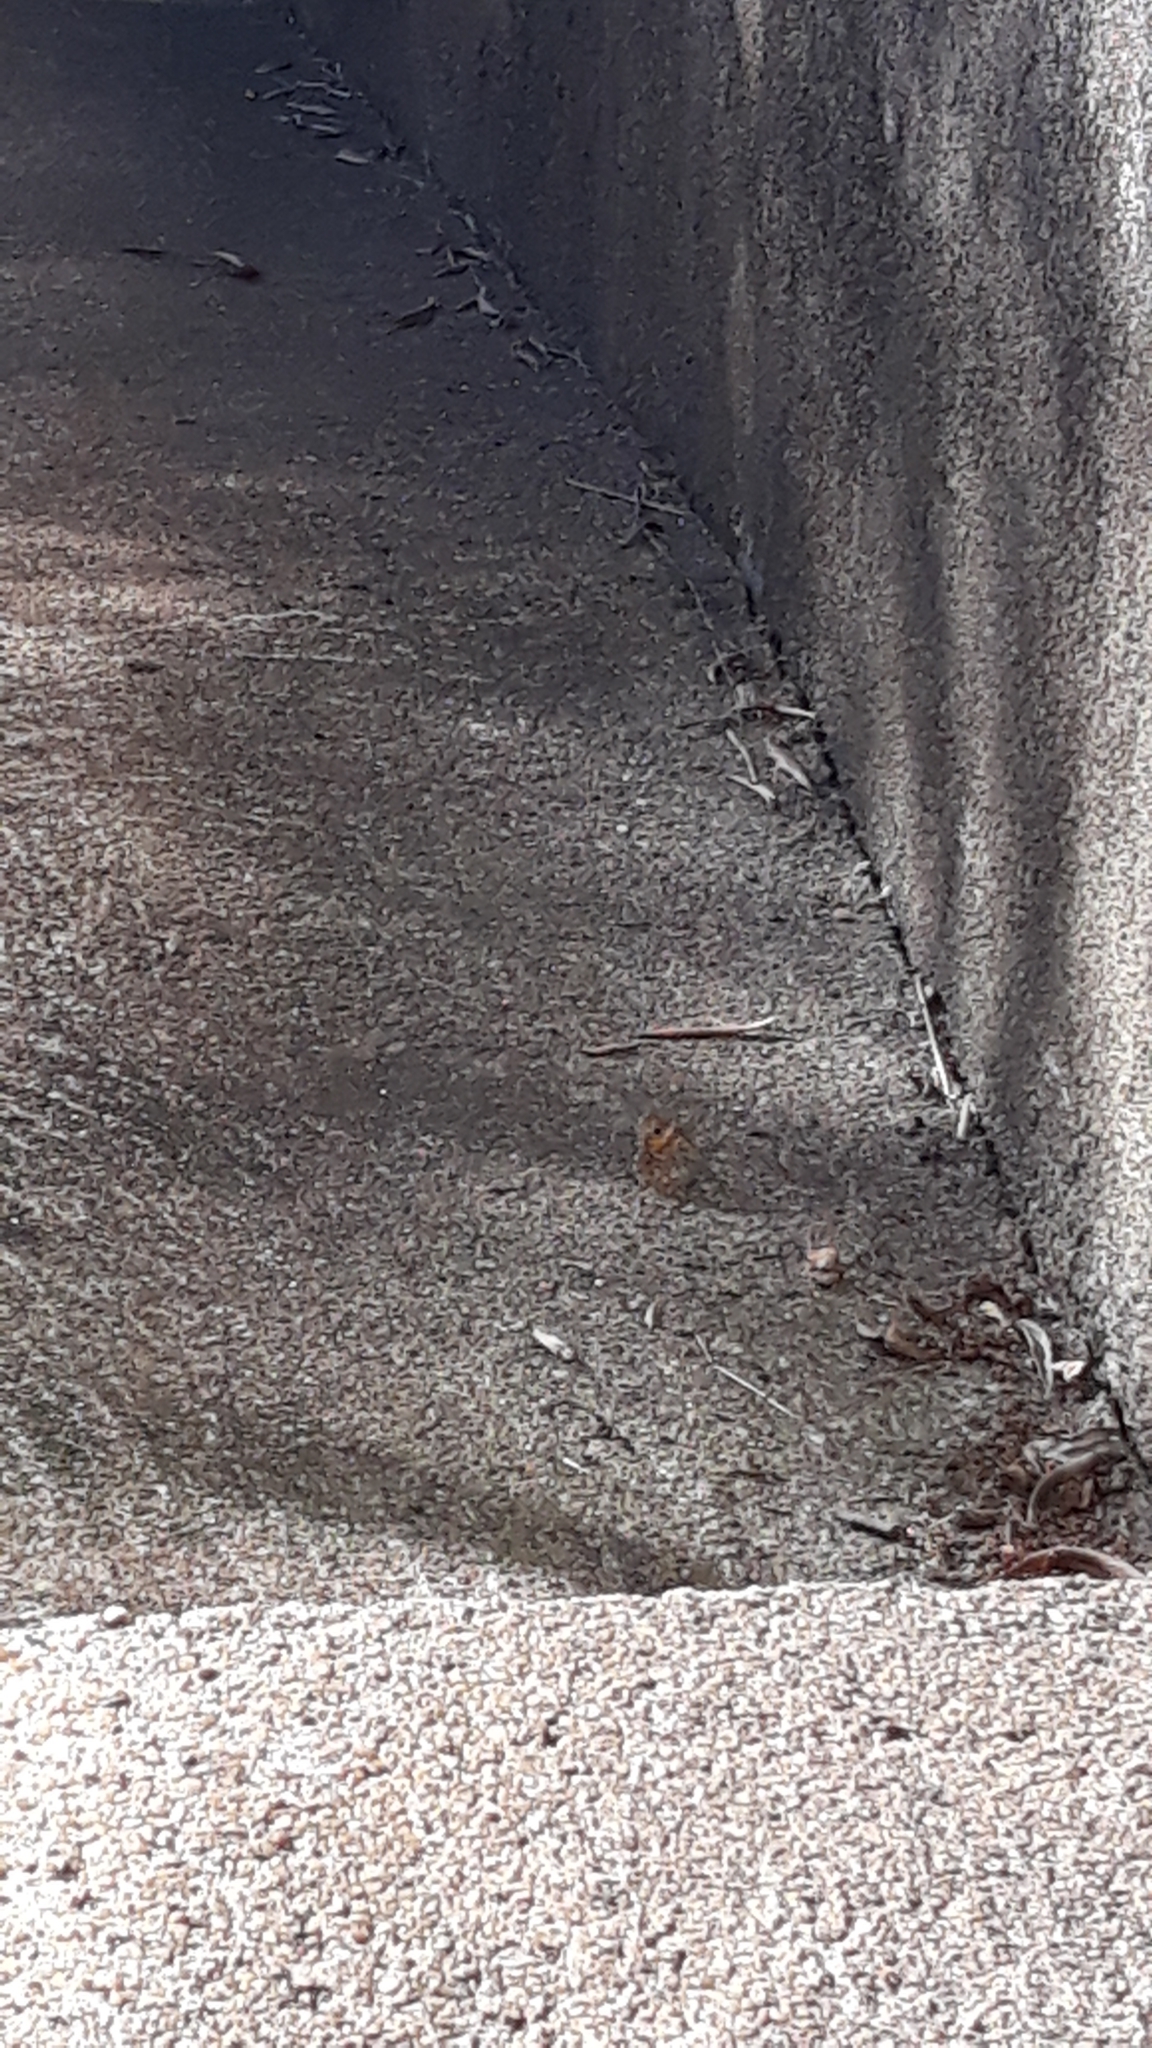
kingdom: Animalia
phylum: Arthropoda
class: Insecta
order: Lepidoptera
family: Nymphalidae
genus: Pararge
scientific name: Pararge Lasiommata megera
